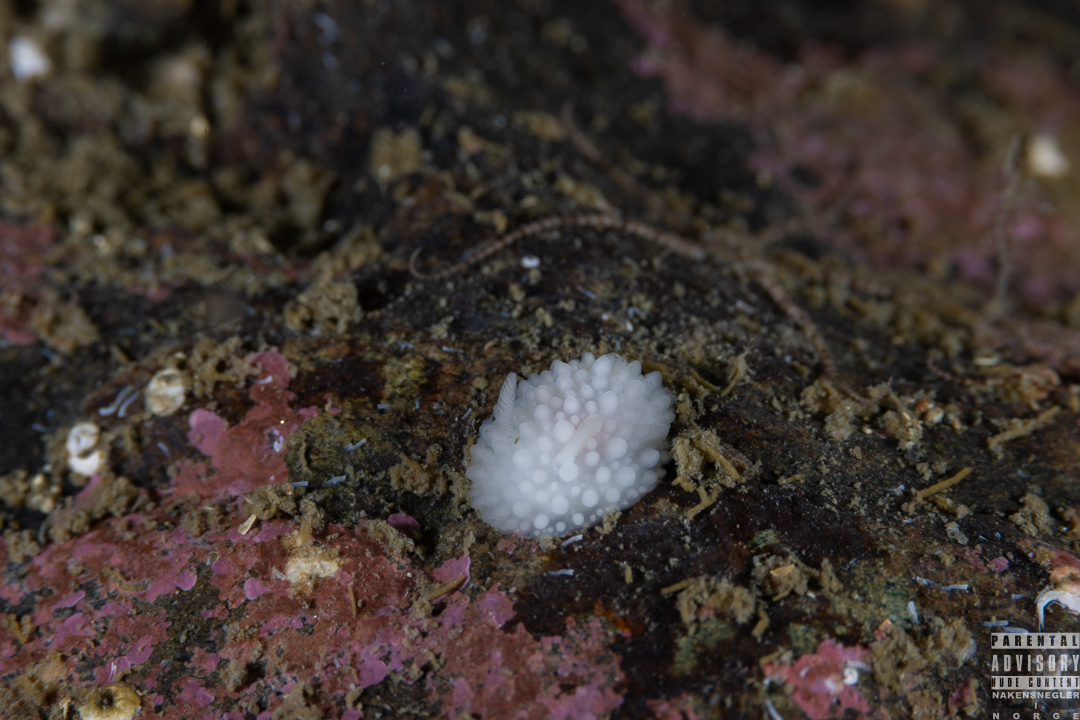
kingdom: Animalia
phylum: Mollusca
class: Gastropoda
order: Nudibranchia
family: Onchidorididae
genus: Adalaria
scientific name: Adalaria loveni
